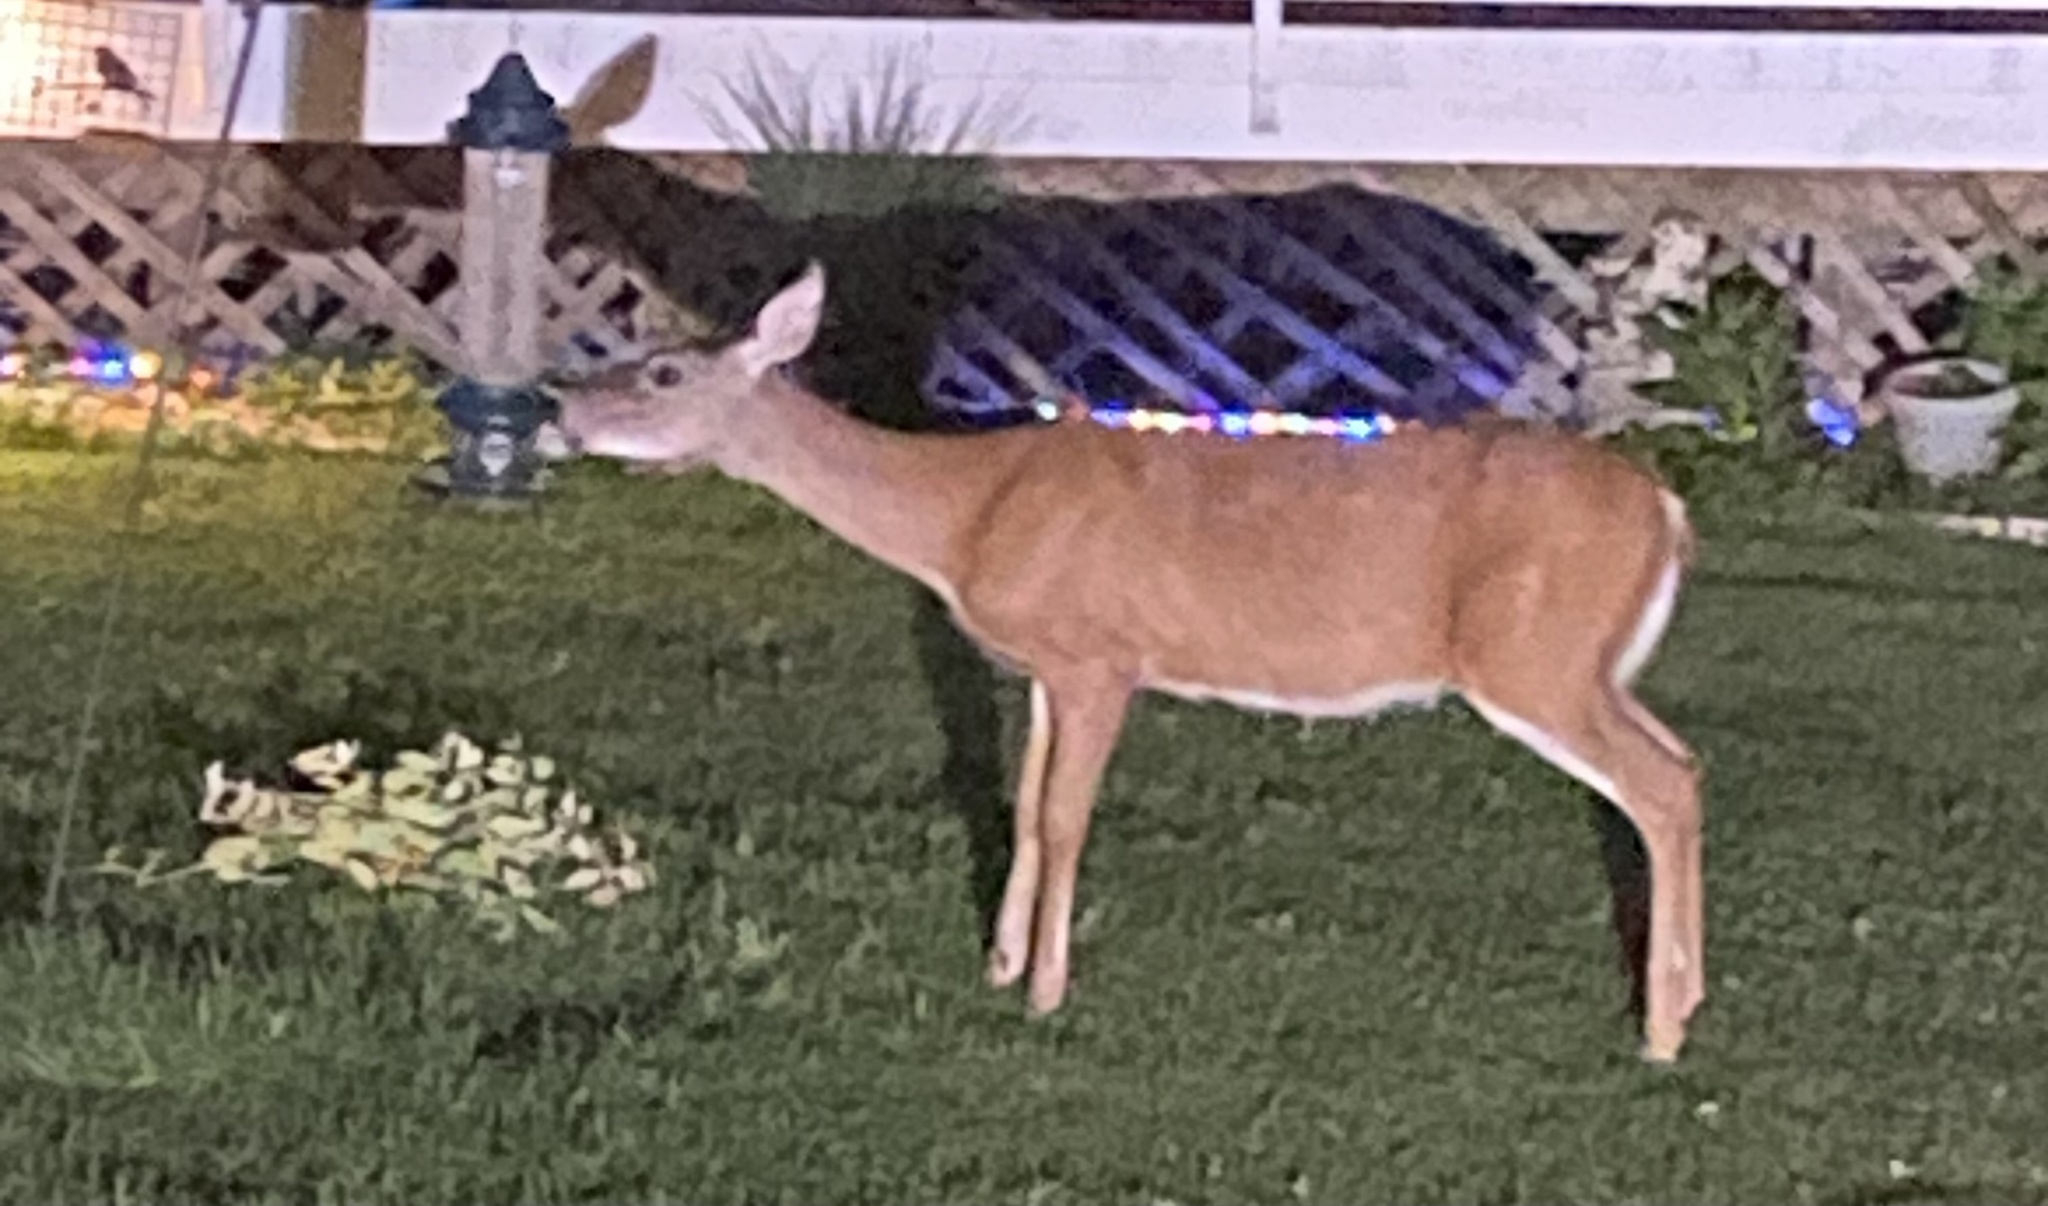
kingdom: Animalia
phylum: Chordata
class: Mammalia
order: Artiodactyla
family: Cervidae
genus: Odocoileus
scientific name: Odocoileus virginianus
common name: White-tailed deer
